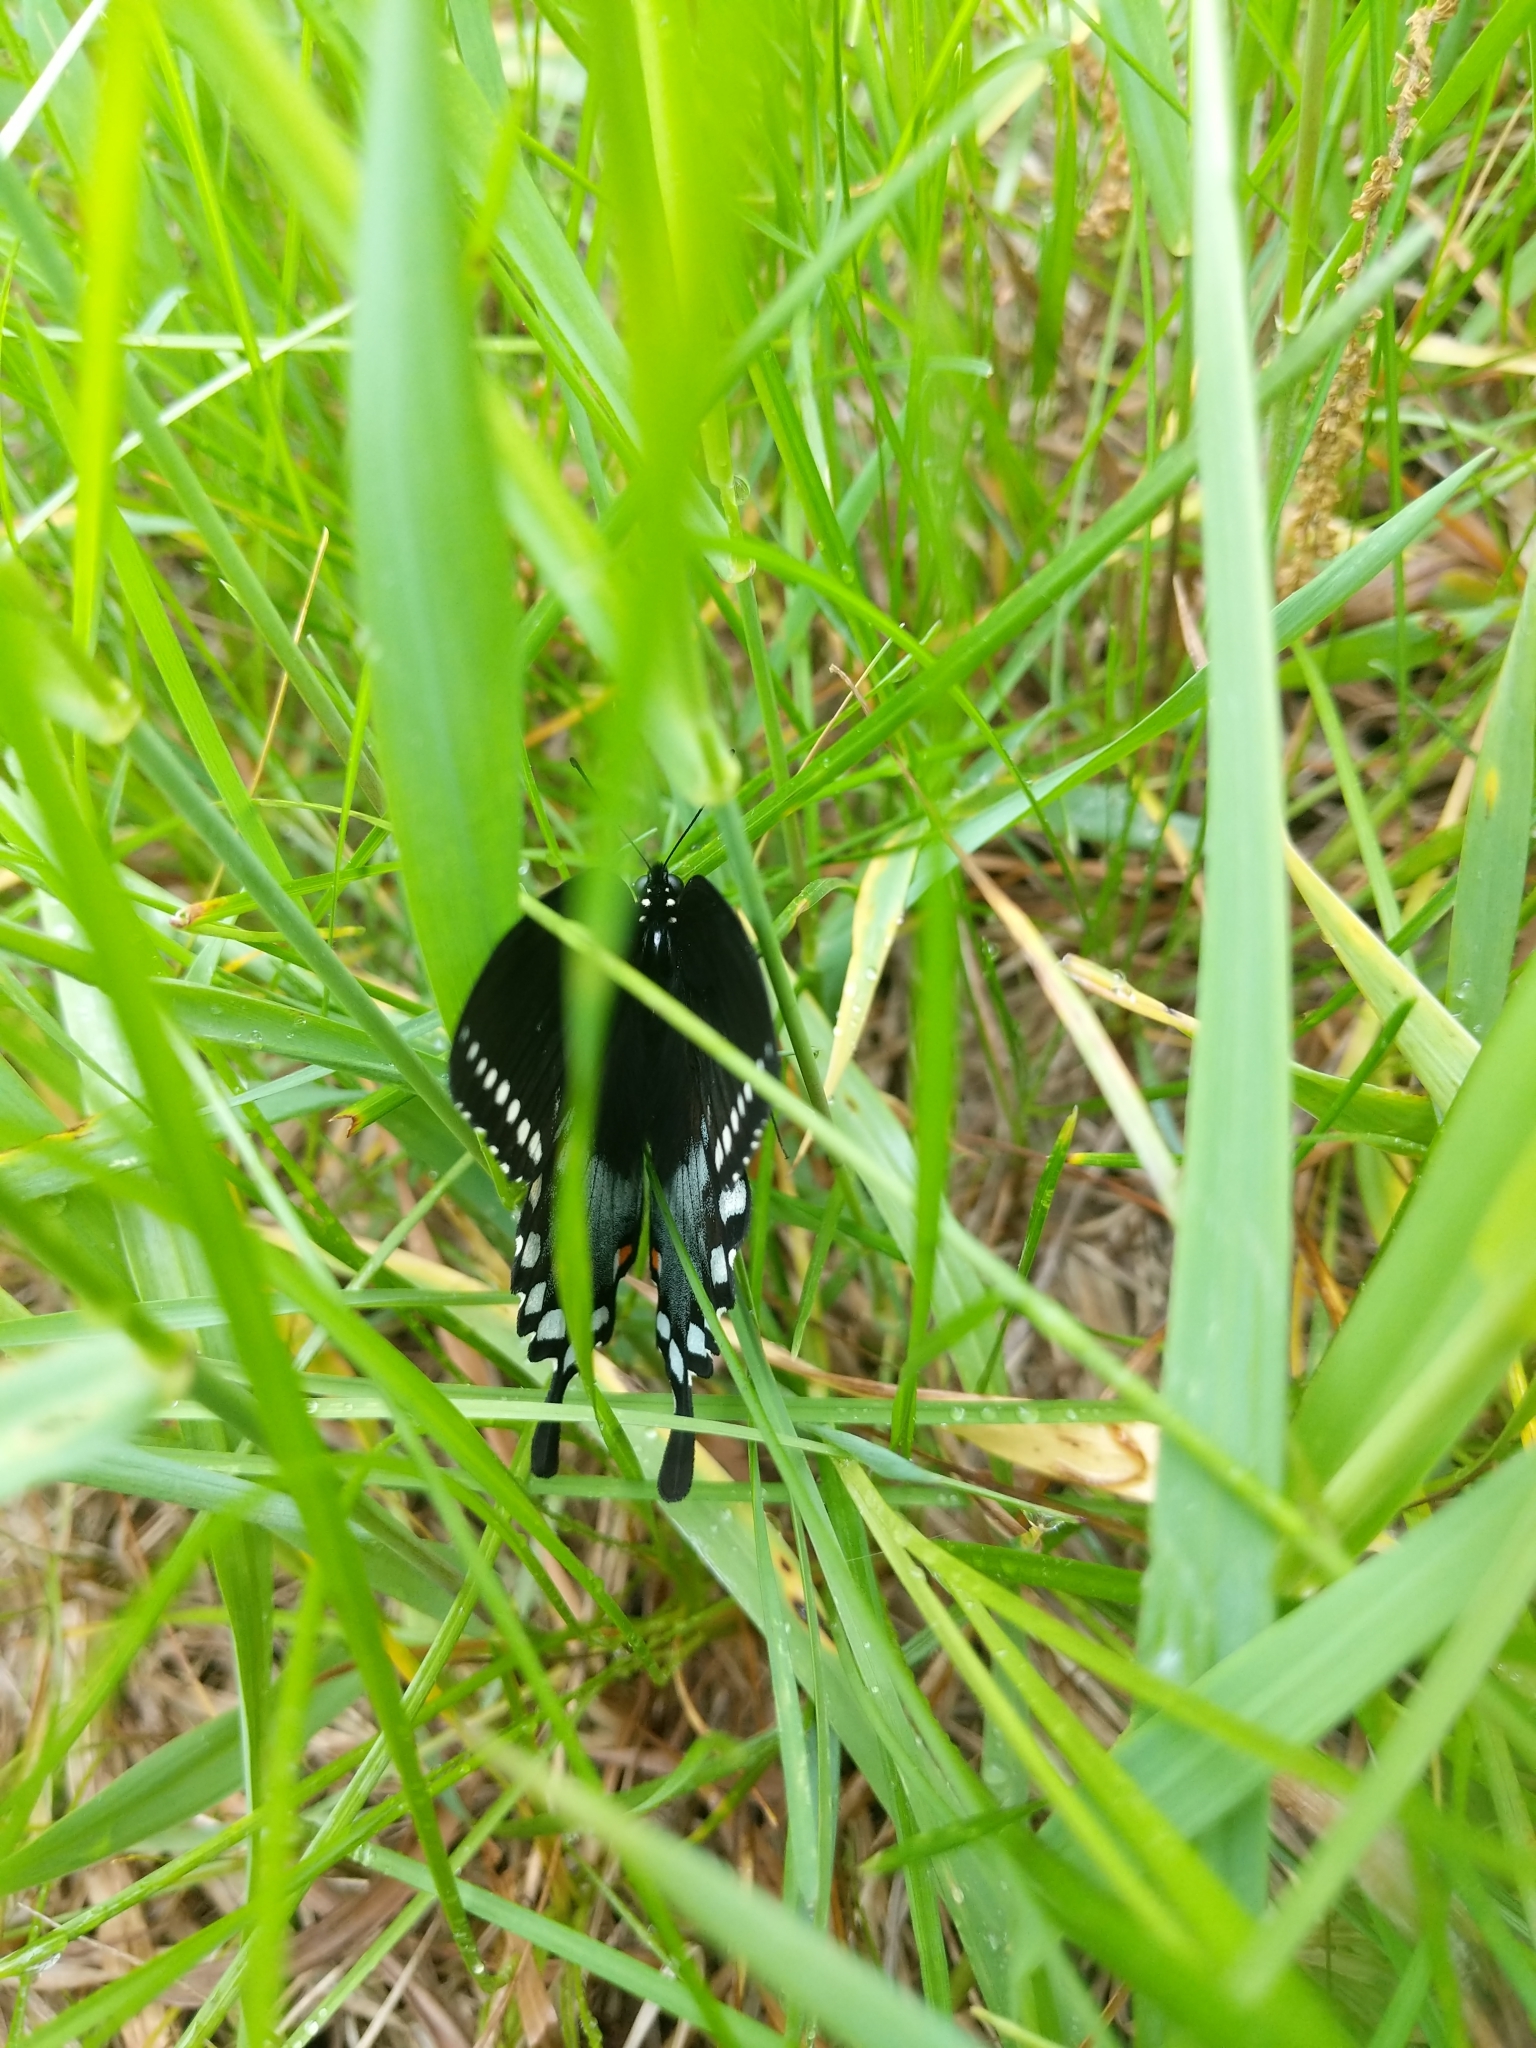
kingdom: Animalia
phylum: Arthropoda
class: Insecta
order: Lepidoptera
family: Papilionidae
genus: Papilio
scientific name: Papilio troilus
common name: Spicebush swallowtail
